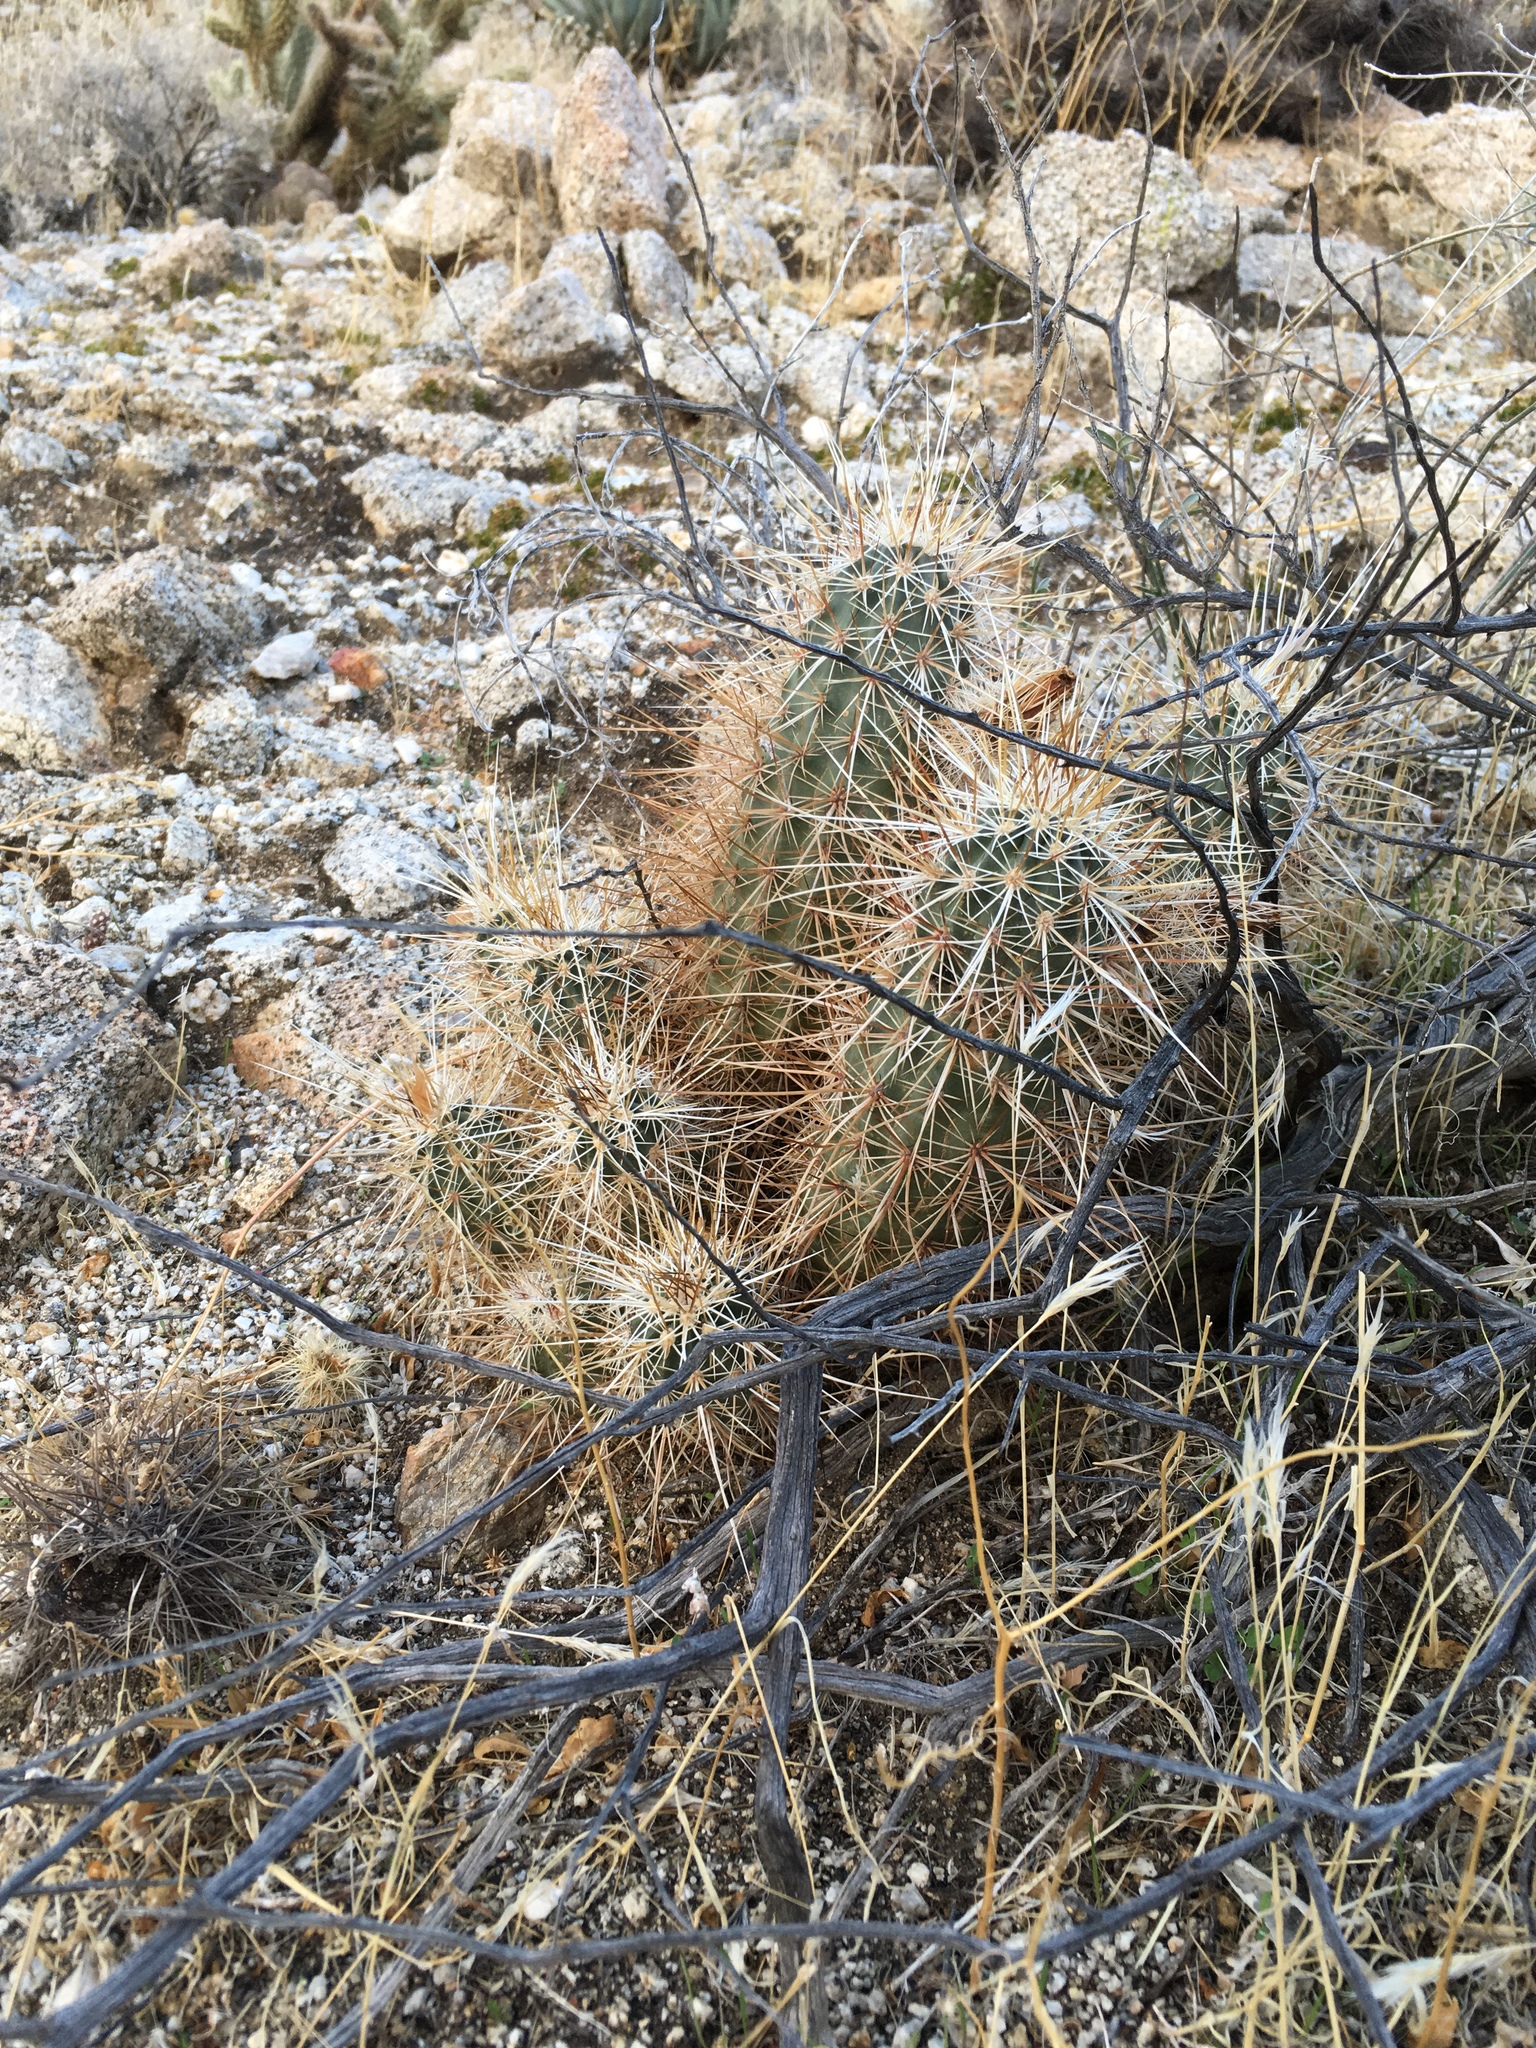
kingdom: Plantae
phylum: Tracheophyta
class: Magnoliopsida
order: Caryophyllales
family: Cactaceae
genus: Echinocereus
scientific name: Echinocereus engelmannii
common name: Engelmann's hedgehog cactus
